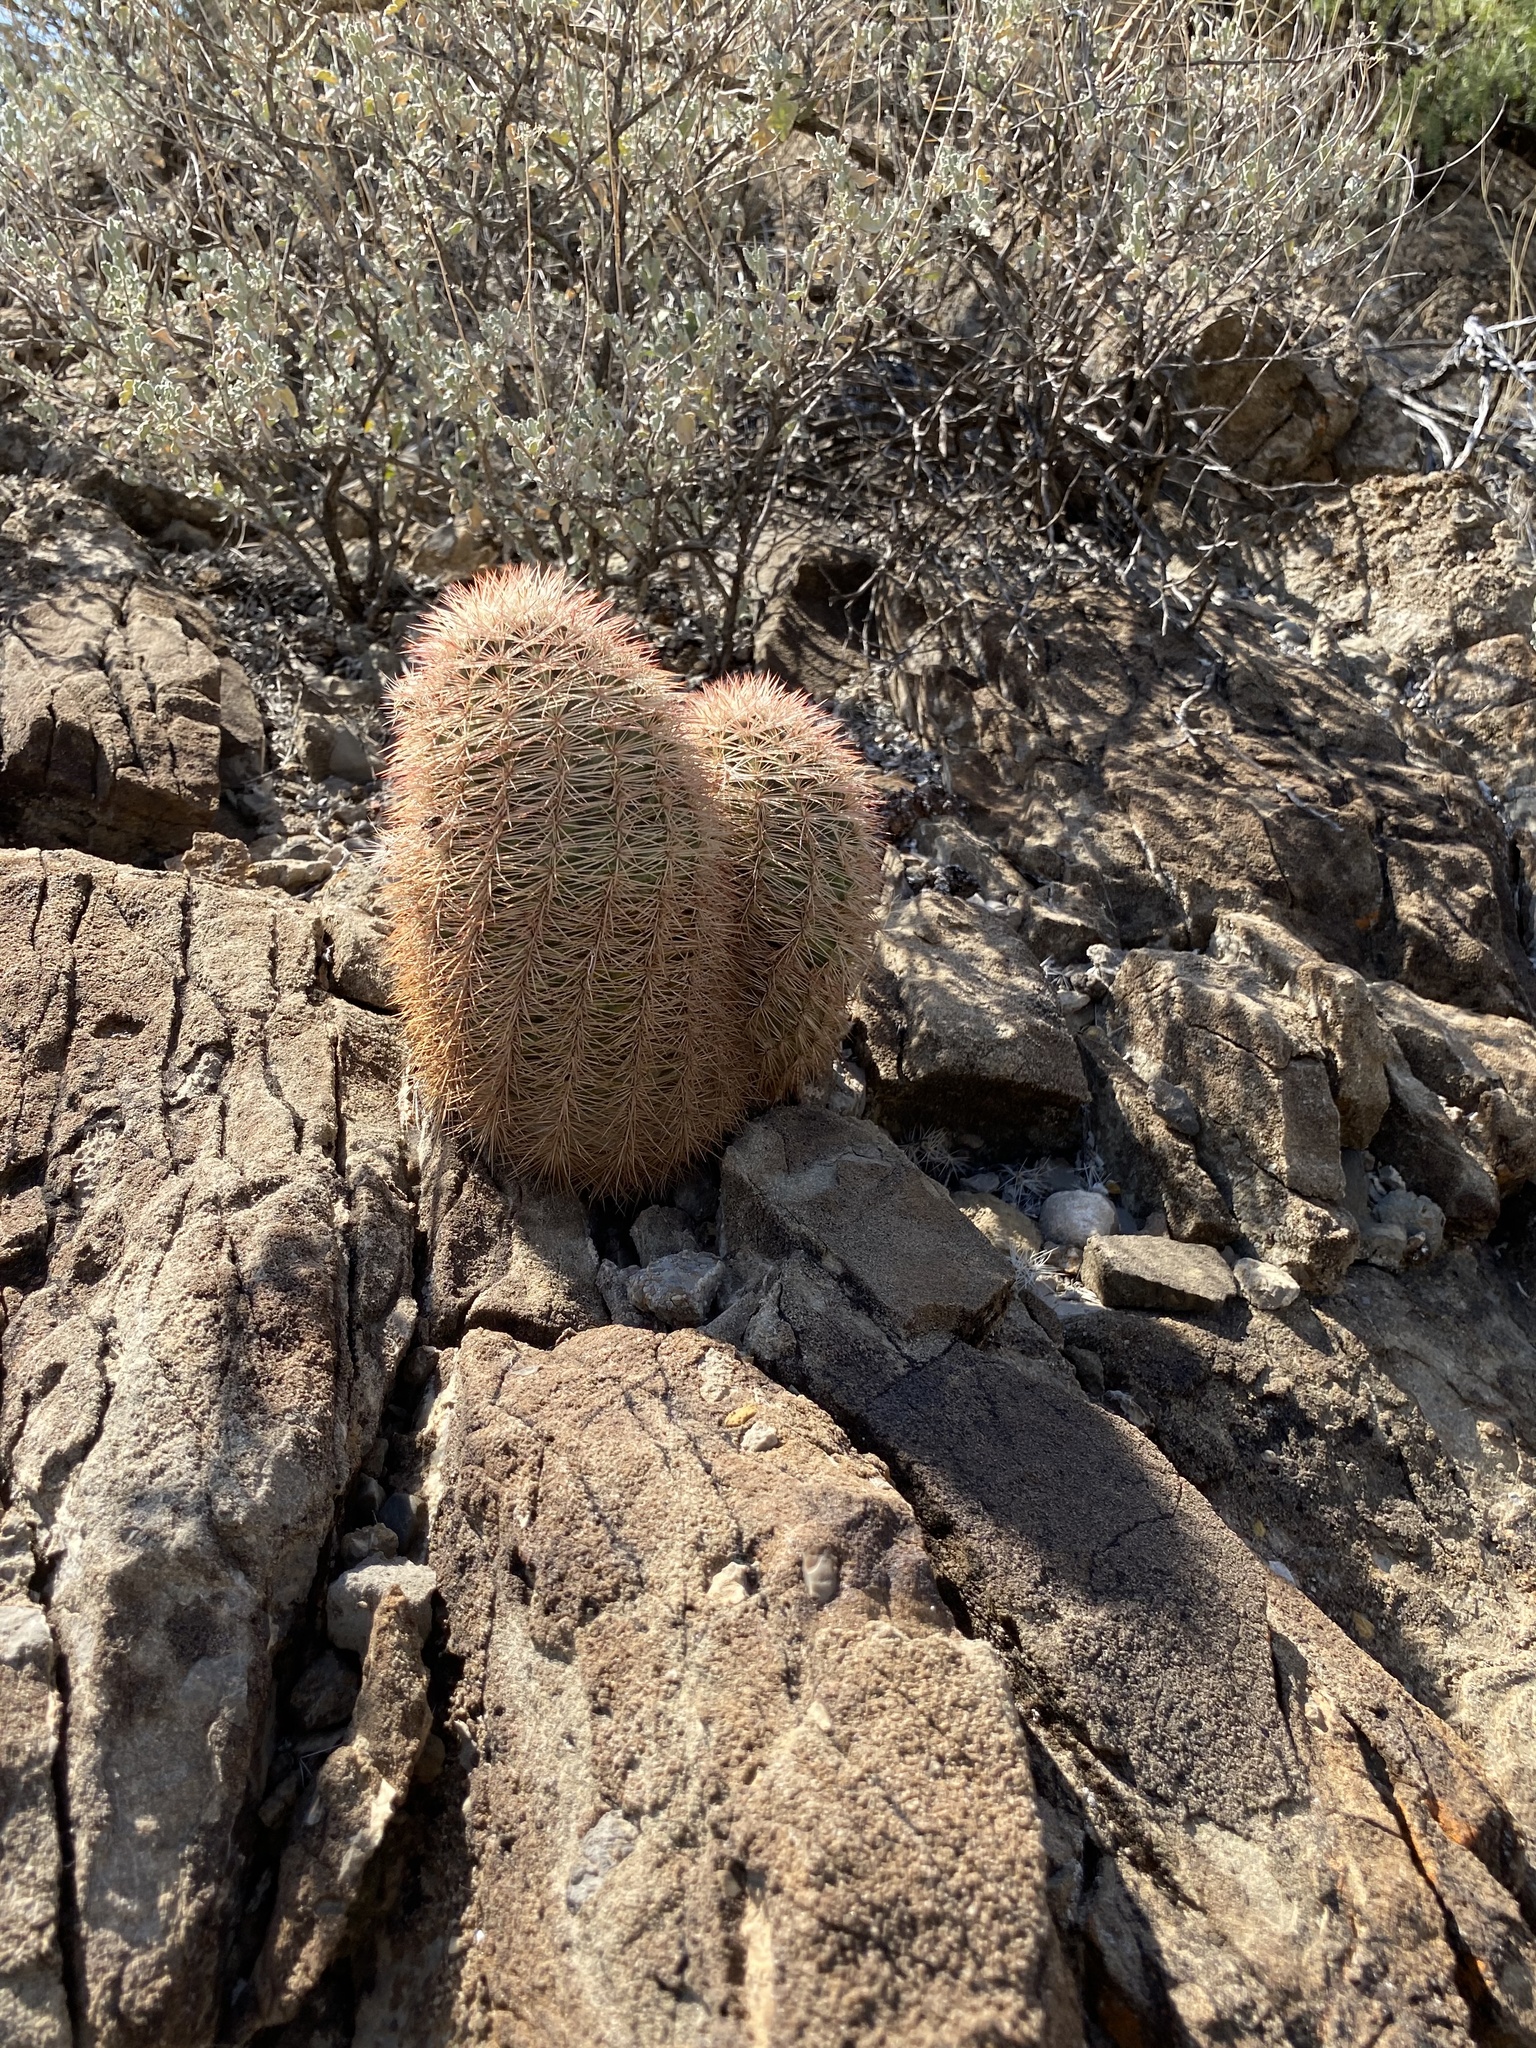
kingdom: Plantae
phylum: Tracheophyta
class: Magnoliopsida
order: Caryophyllales
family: Cactaceae
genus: Echinocereus
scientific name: Echinocereus dasyacanthus
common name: Spiny hedgehog cactus
